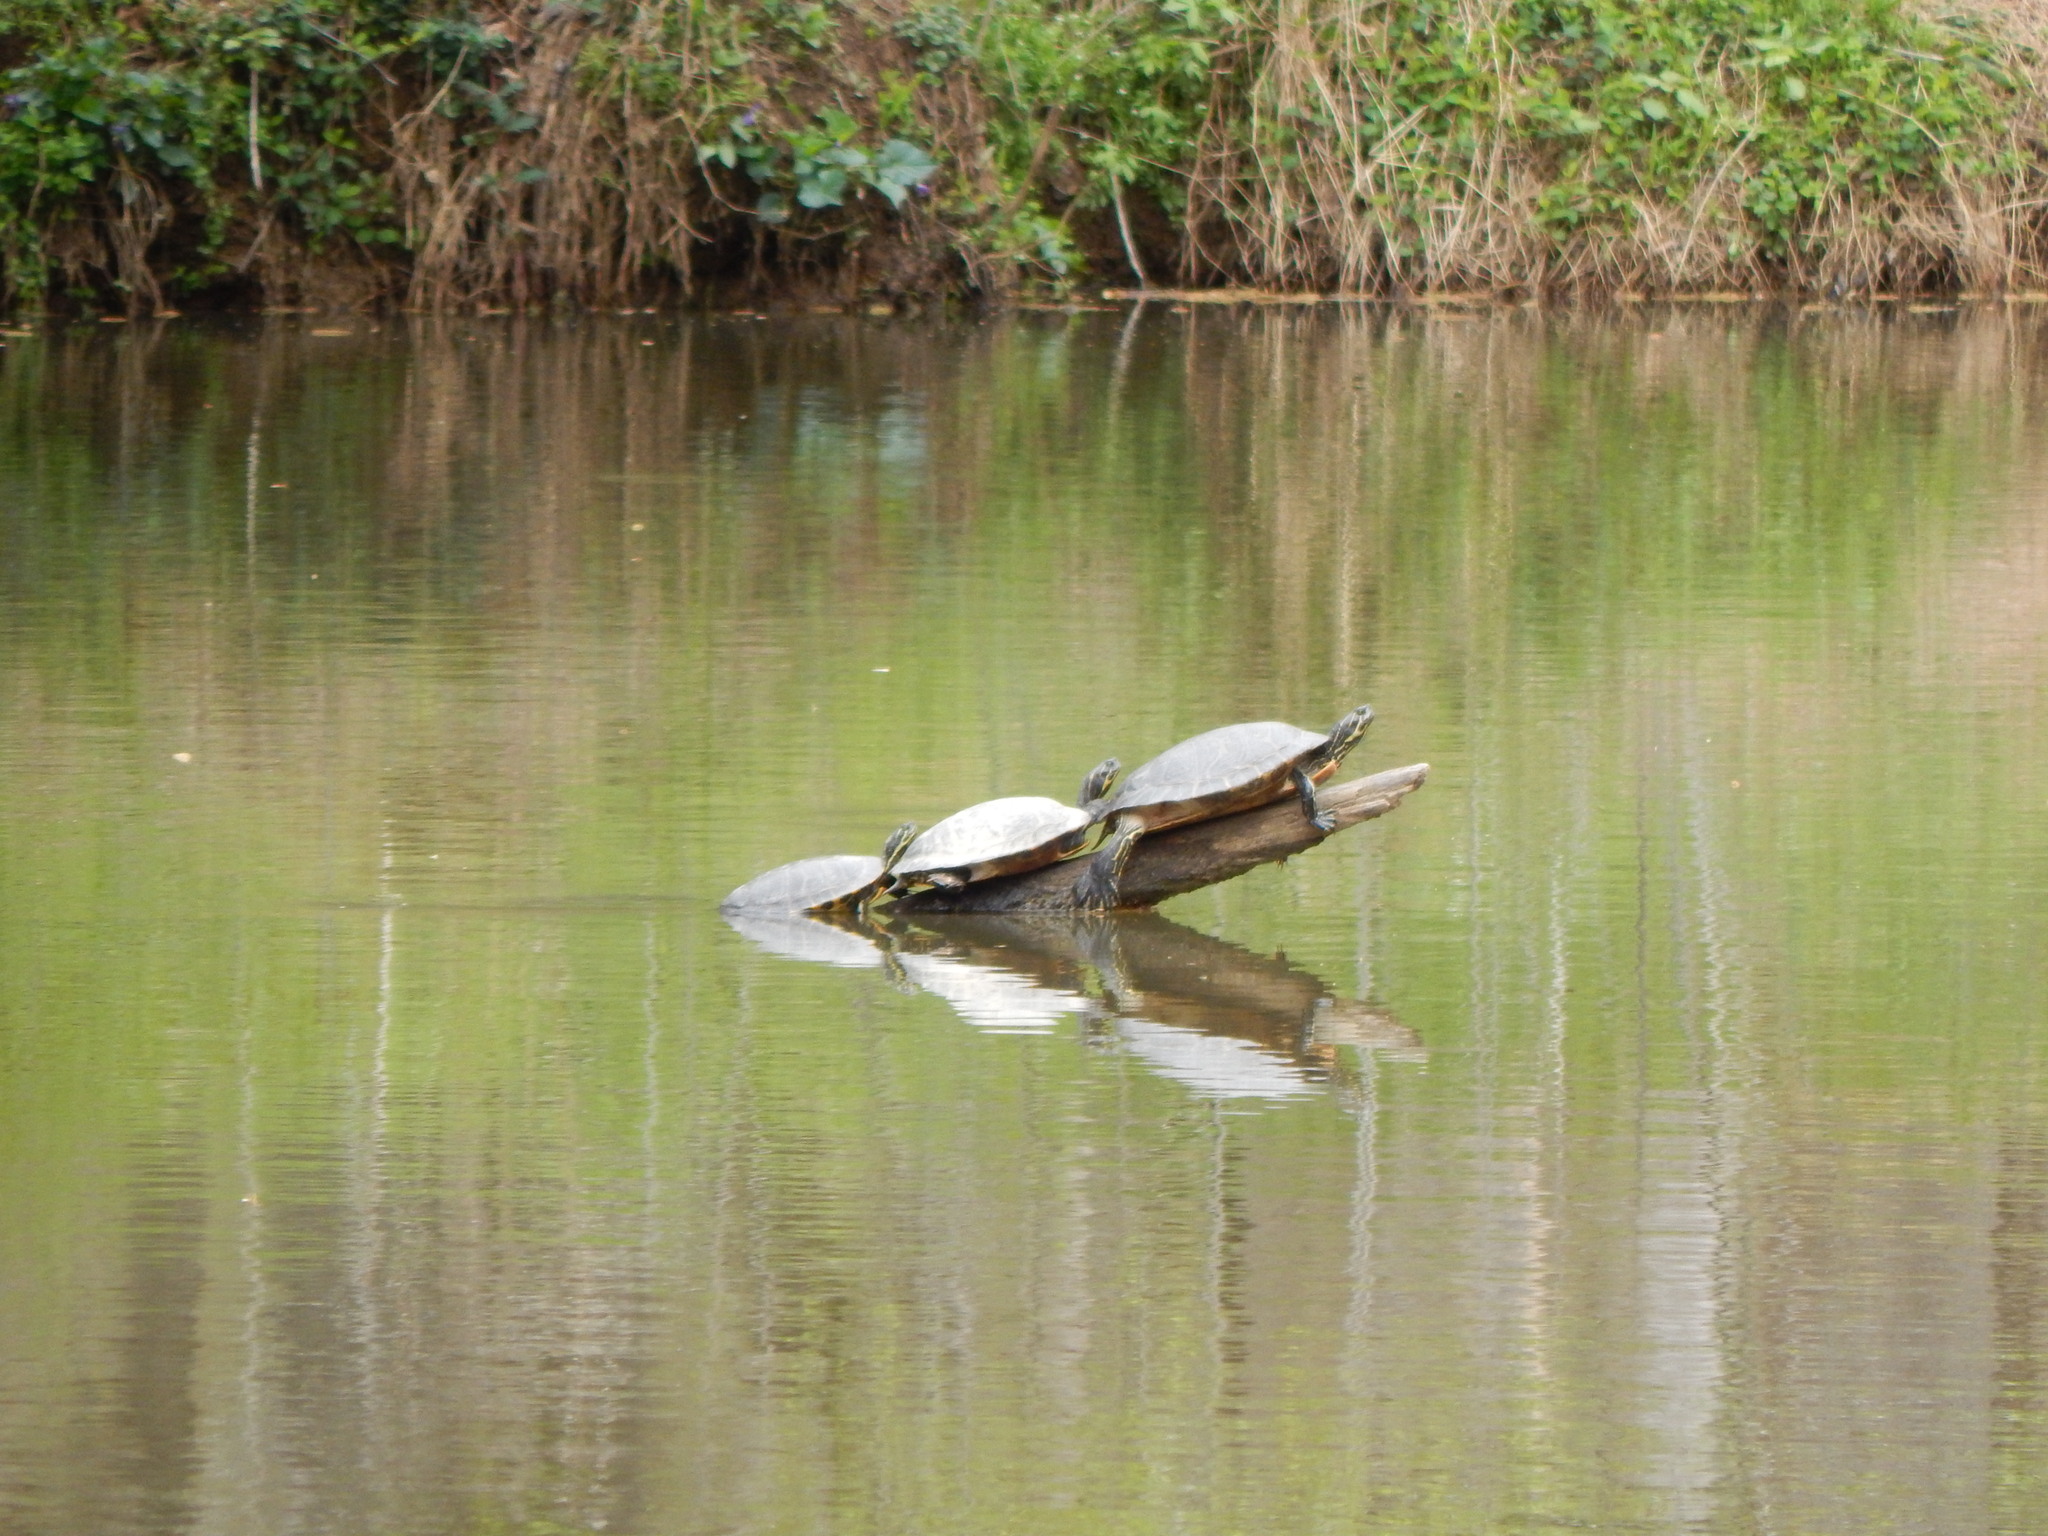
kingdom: Animalia
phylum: Chordata
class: Testudines
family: Emydidae
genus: Pseudemys
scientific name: Pseudemys concinna
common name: Eastern river cooter
